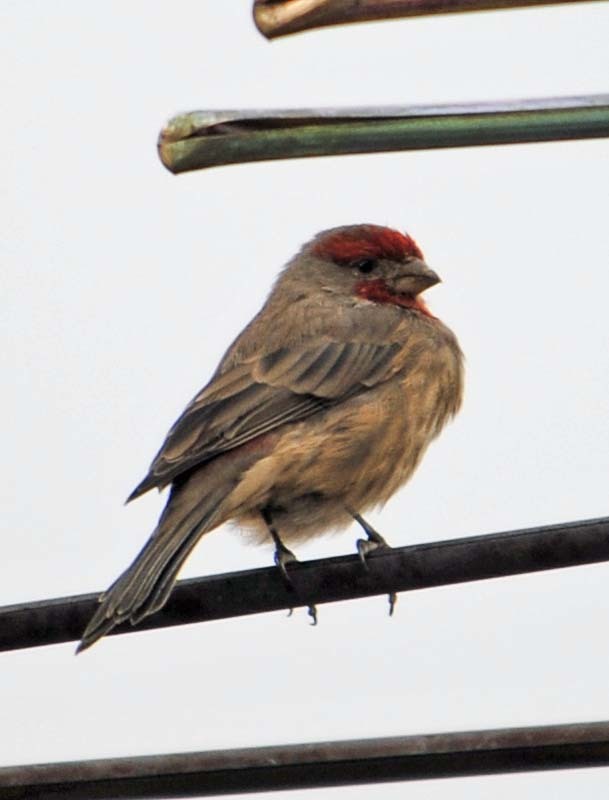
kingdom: Animalia
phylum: Chordata
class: Aves
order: Passeriformes
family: Fringillidae
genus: Haemorhous
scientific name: Haemorhous mexicanus
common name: House finch
